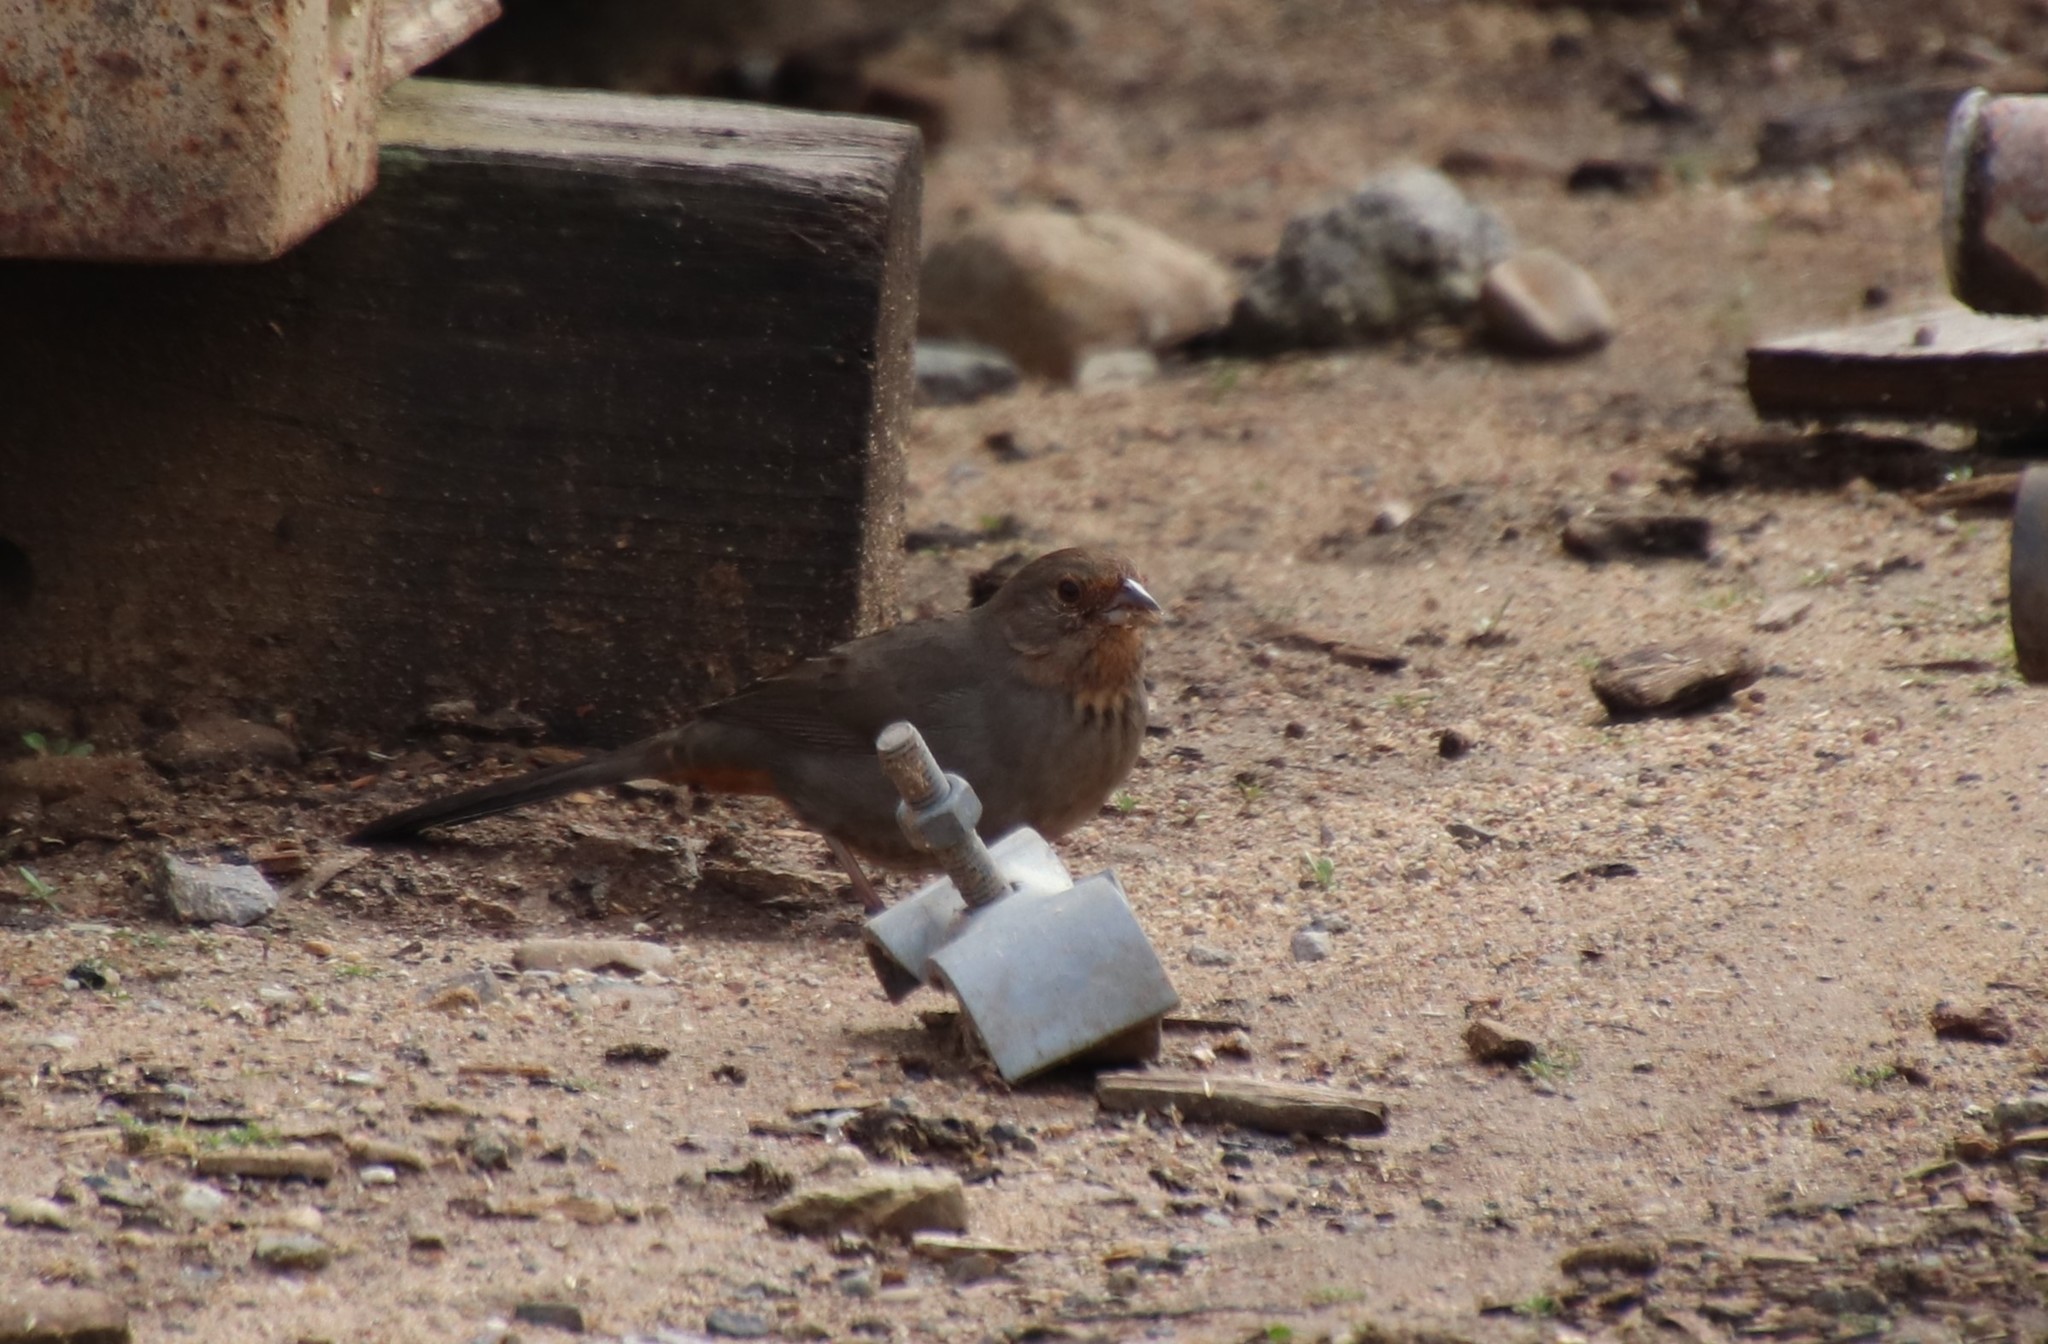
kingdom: Animalia
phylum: Chordata
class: Aves
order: Passeriformes
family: Passerellidae
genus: Melozone
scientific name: Melozone crissalis
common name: California towhee
